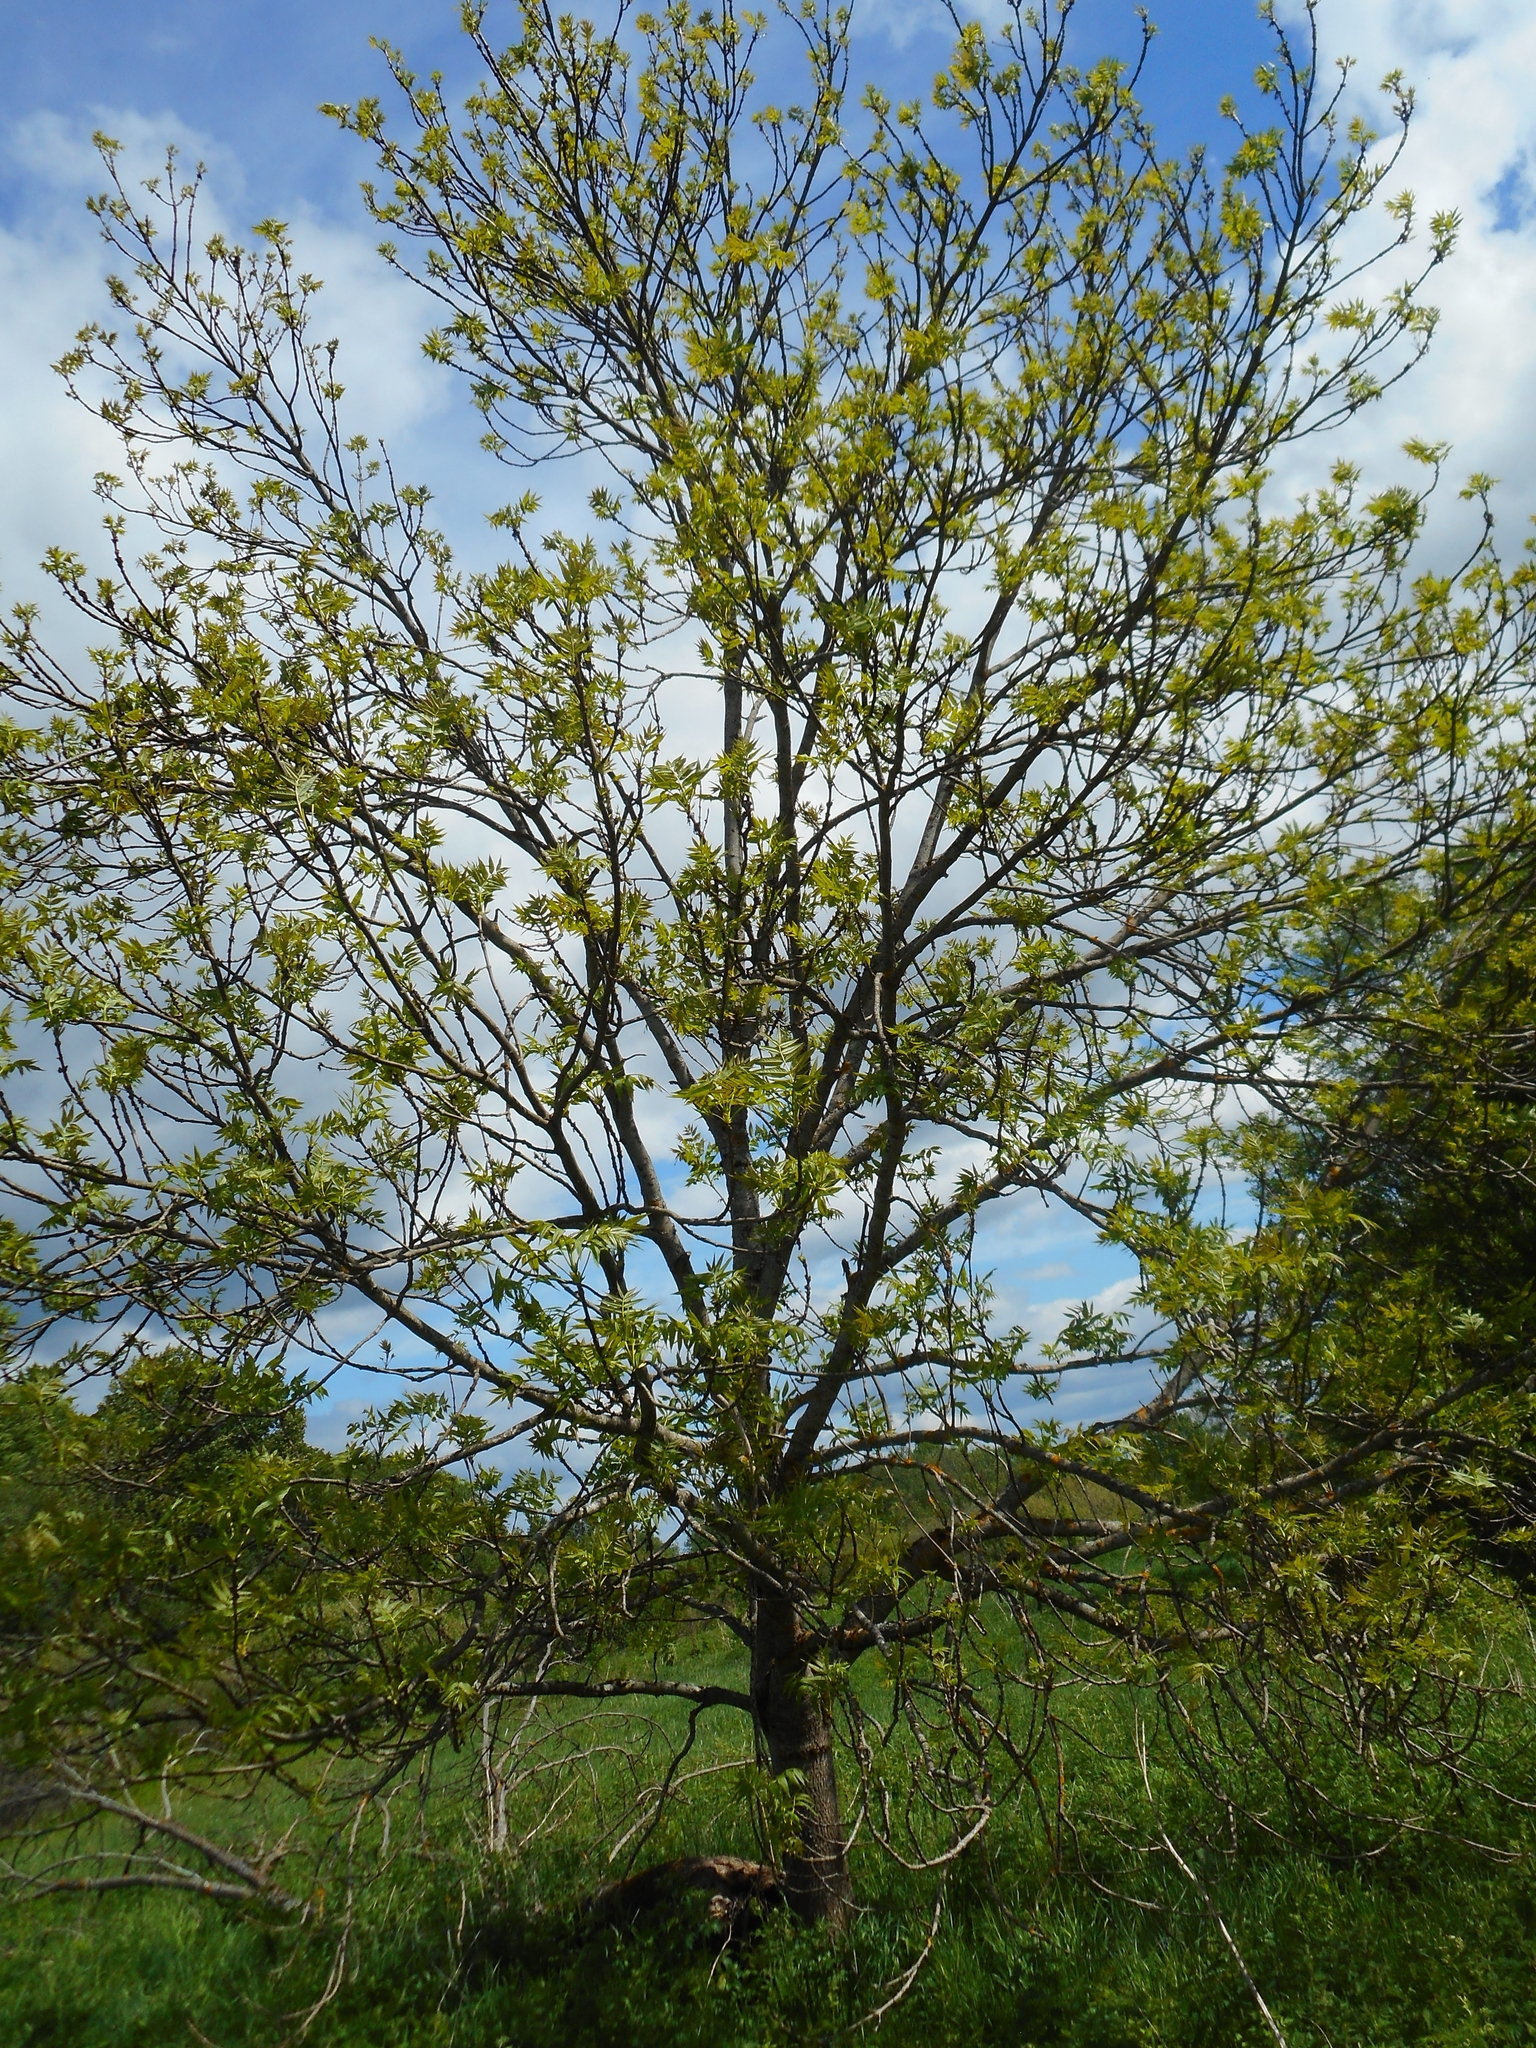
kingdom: Plantae
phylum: Tracheophyta
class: Magnoliopsida
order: Lamiales
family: Oleaceae
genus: Fraxinus
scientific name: Fraxinus excelsior
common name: European ash
